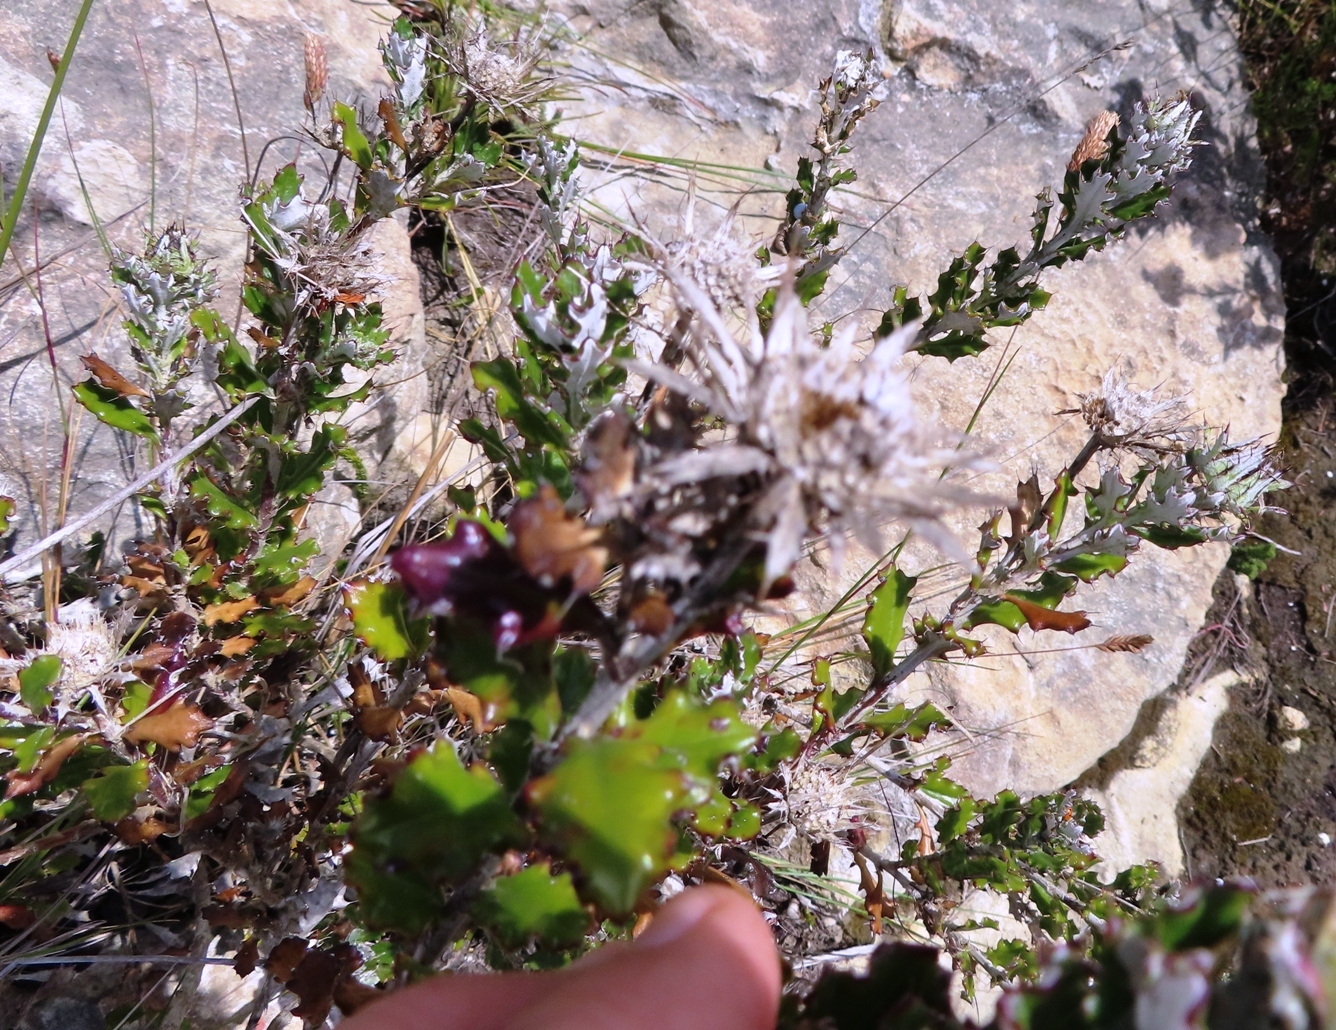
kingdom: Plantae
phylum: Tracheophyta
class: Magnoliopsida
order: Asterales
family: Asteraceae
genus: Berkheya
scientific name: Berkheya coriacea
